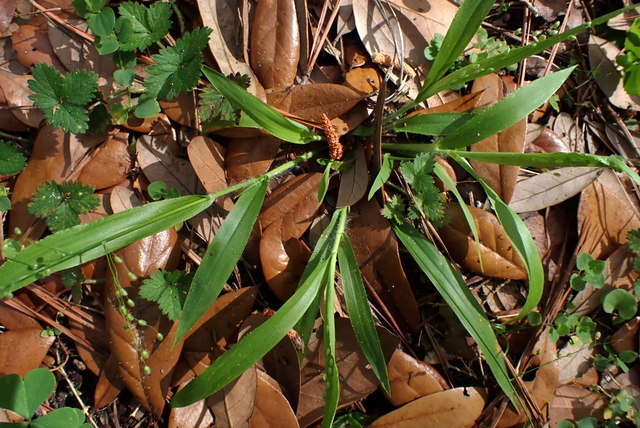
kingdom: Plantae
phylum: Tracheophyta
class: Liliopsida
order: Poales
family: Poaceae
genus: Dichanthelium
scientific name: Dichanthelium laxiflorum
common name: Soft-tuft panic grass
